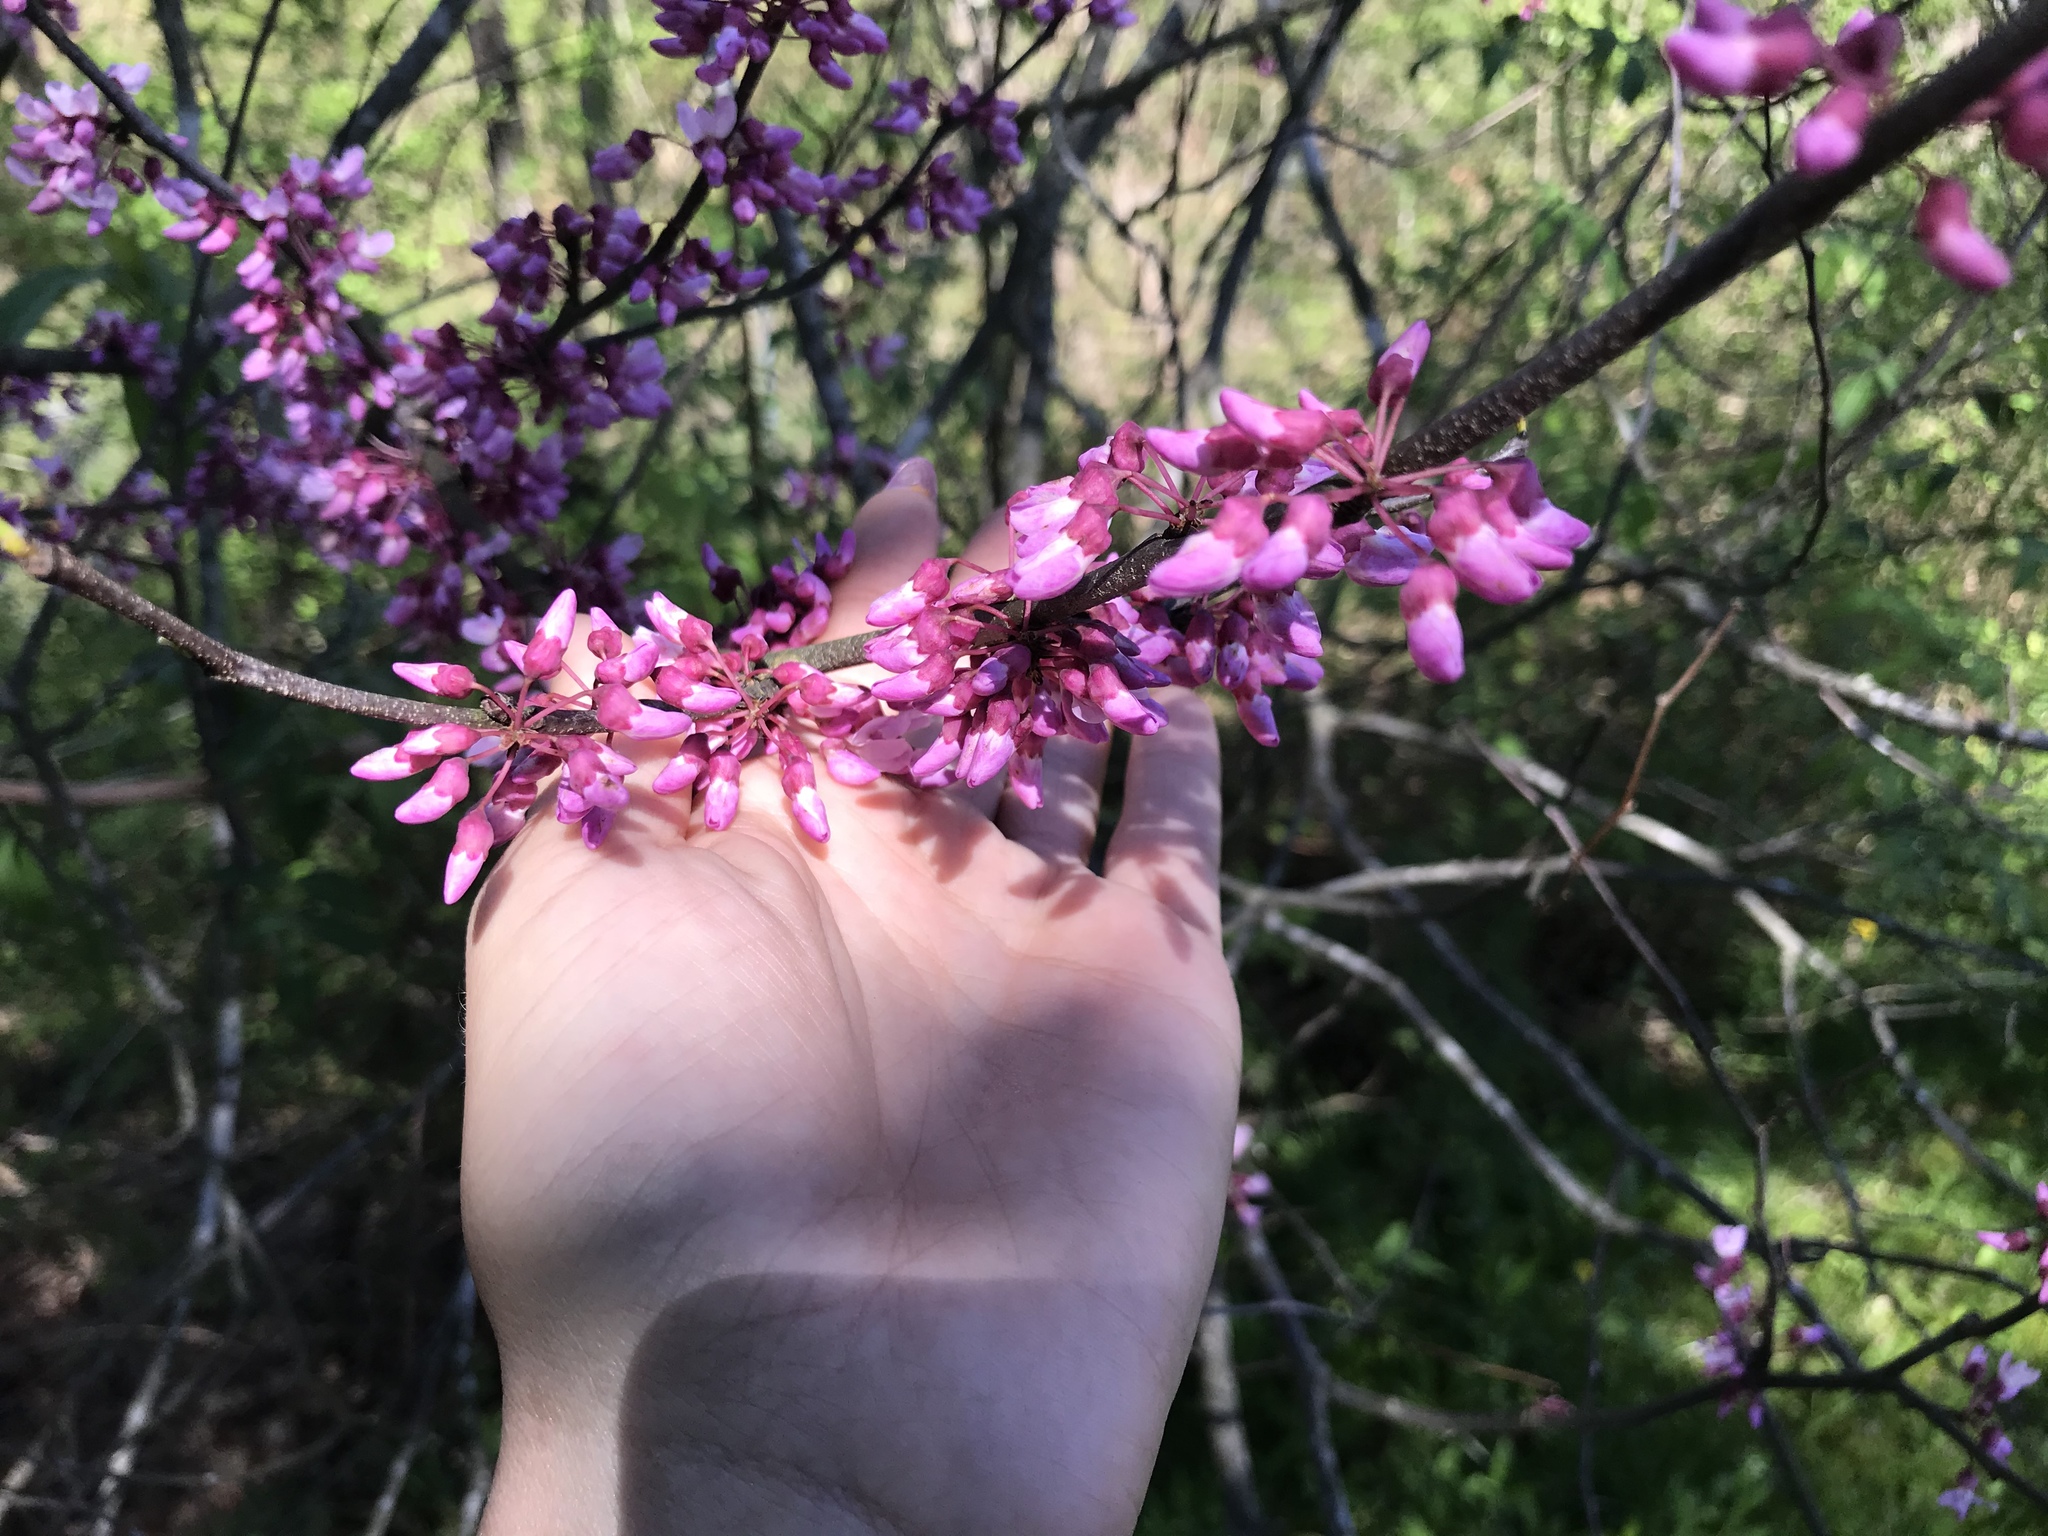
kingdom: Plantae
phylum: Tracheophyta
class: Magnoliopsida
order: Fabales
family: Fabaceae
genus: Cercis
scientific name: Cercis canadensis
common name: Eastern redbud
